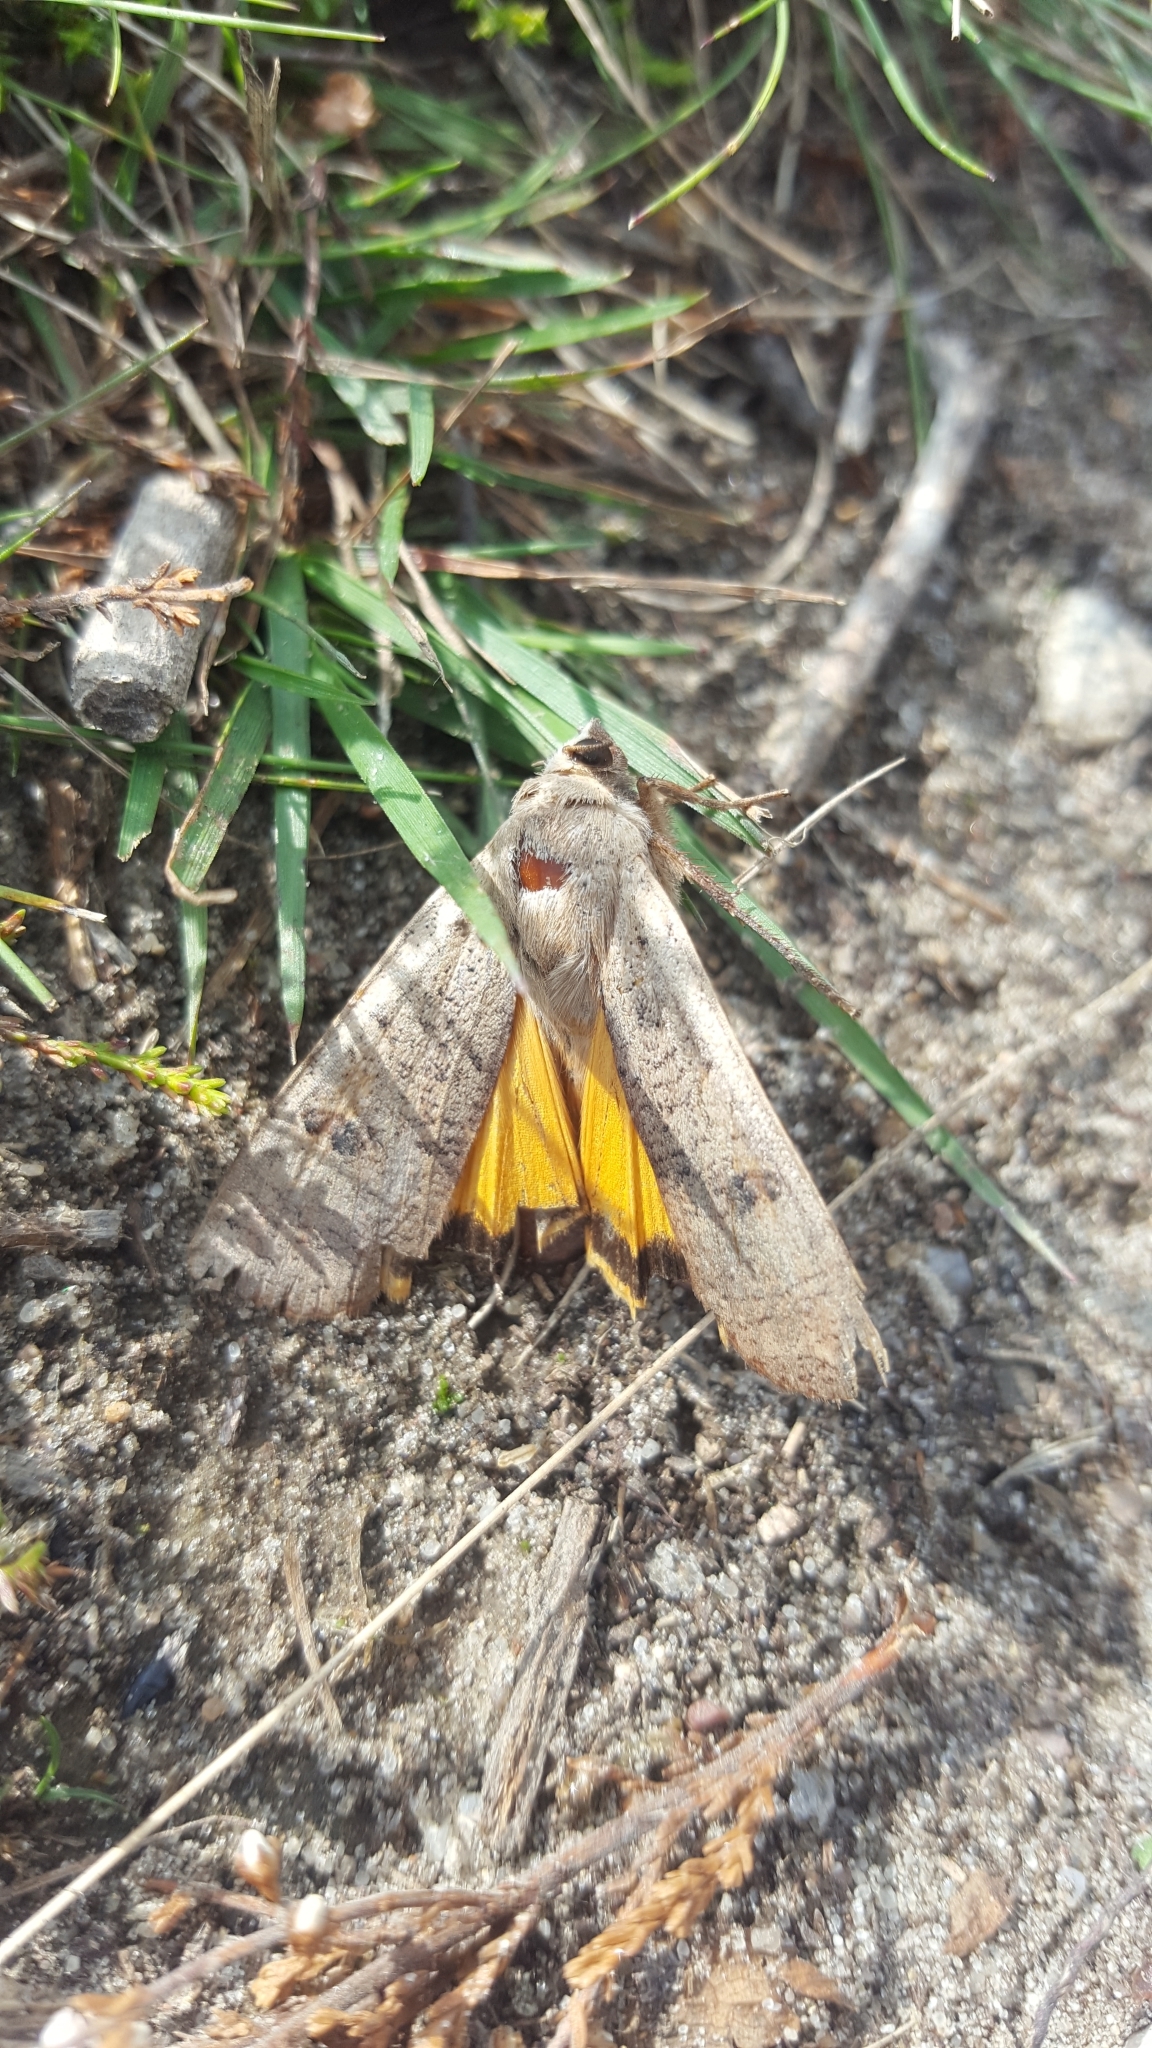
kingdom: Animalia
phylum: Arthropoda
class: Insecta
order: Lepidoptera
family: Noctuidae
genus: Noctua
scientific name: Noctua pronuba
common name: Large yellow underwing
